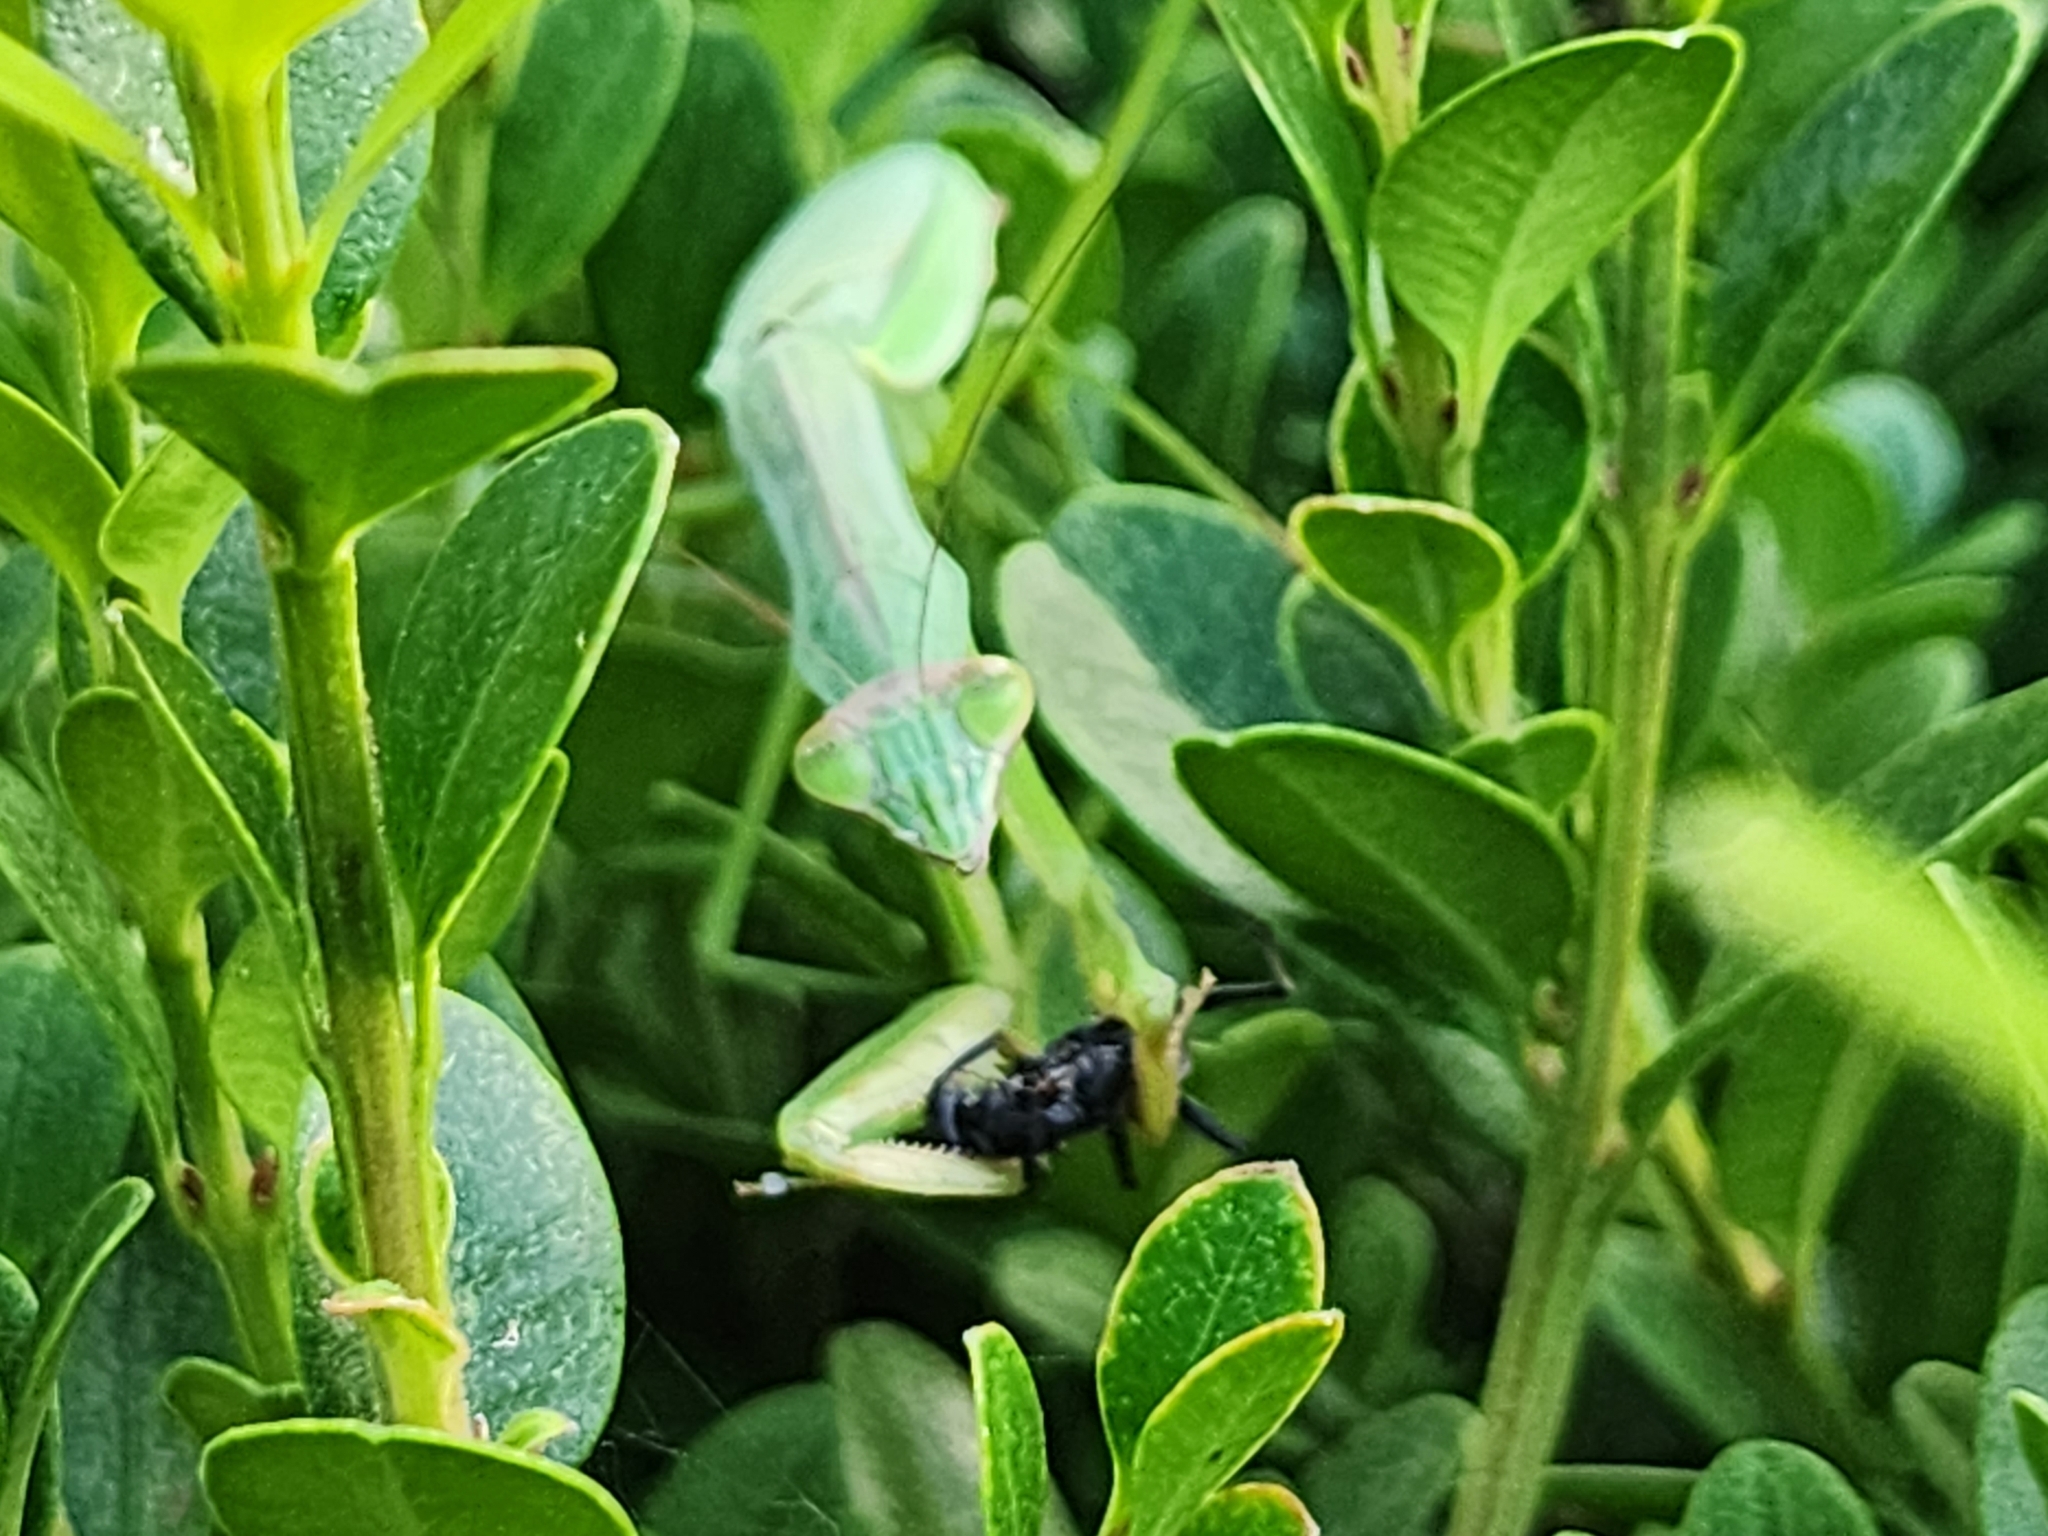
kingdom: Animalia
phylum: Arthropoda
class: Insecta
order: Mantodea
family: Mantidae
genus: Tenodera
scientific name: Tenodera sinensis
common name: Chinese mantis
